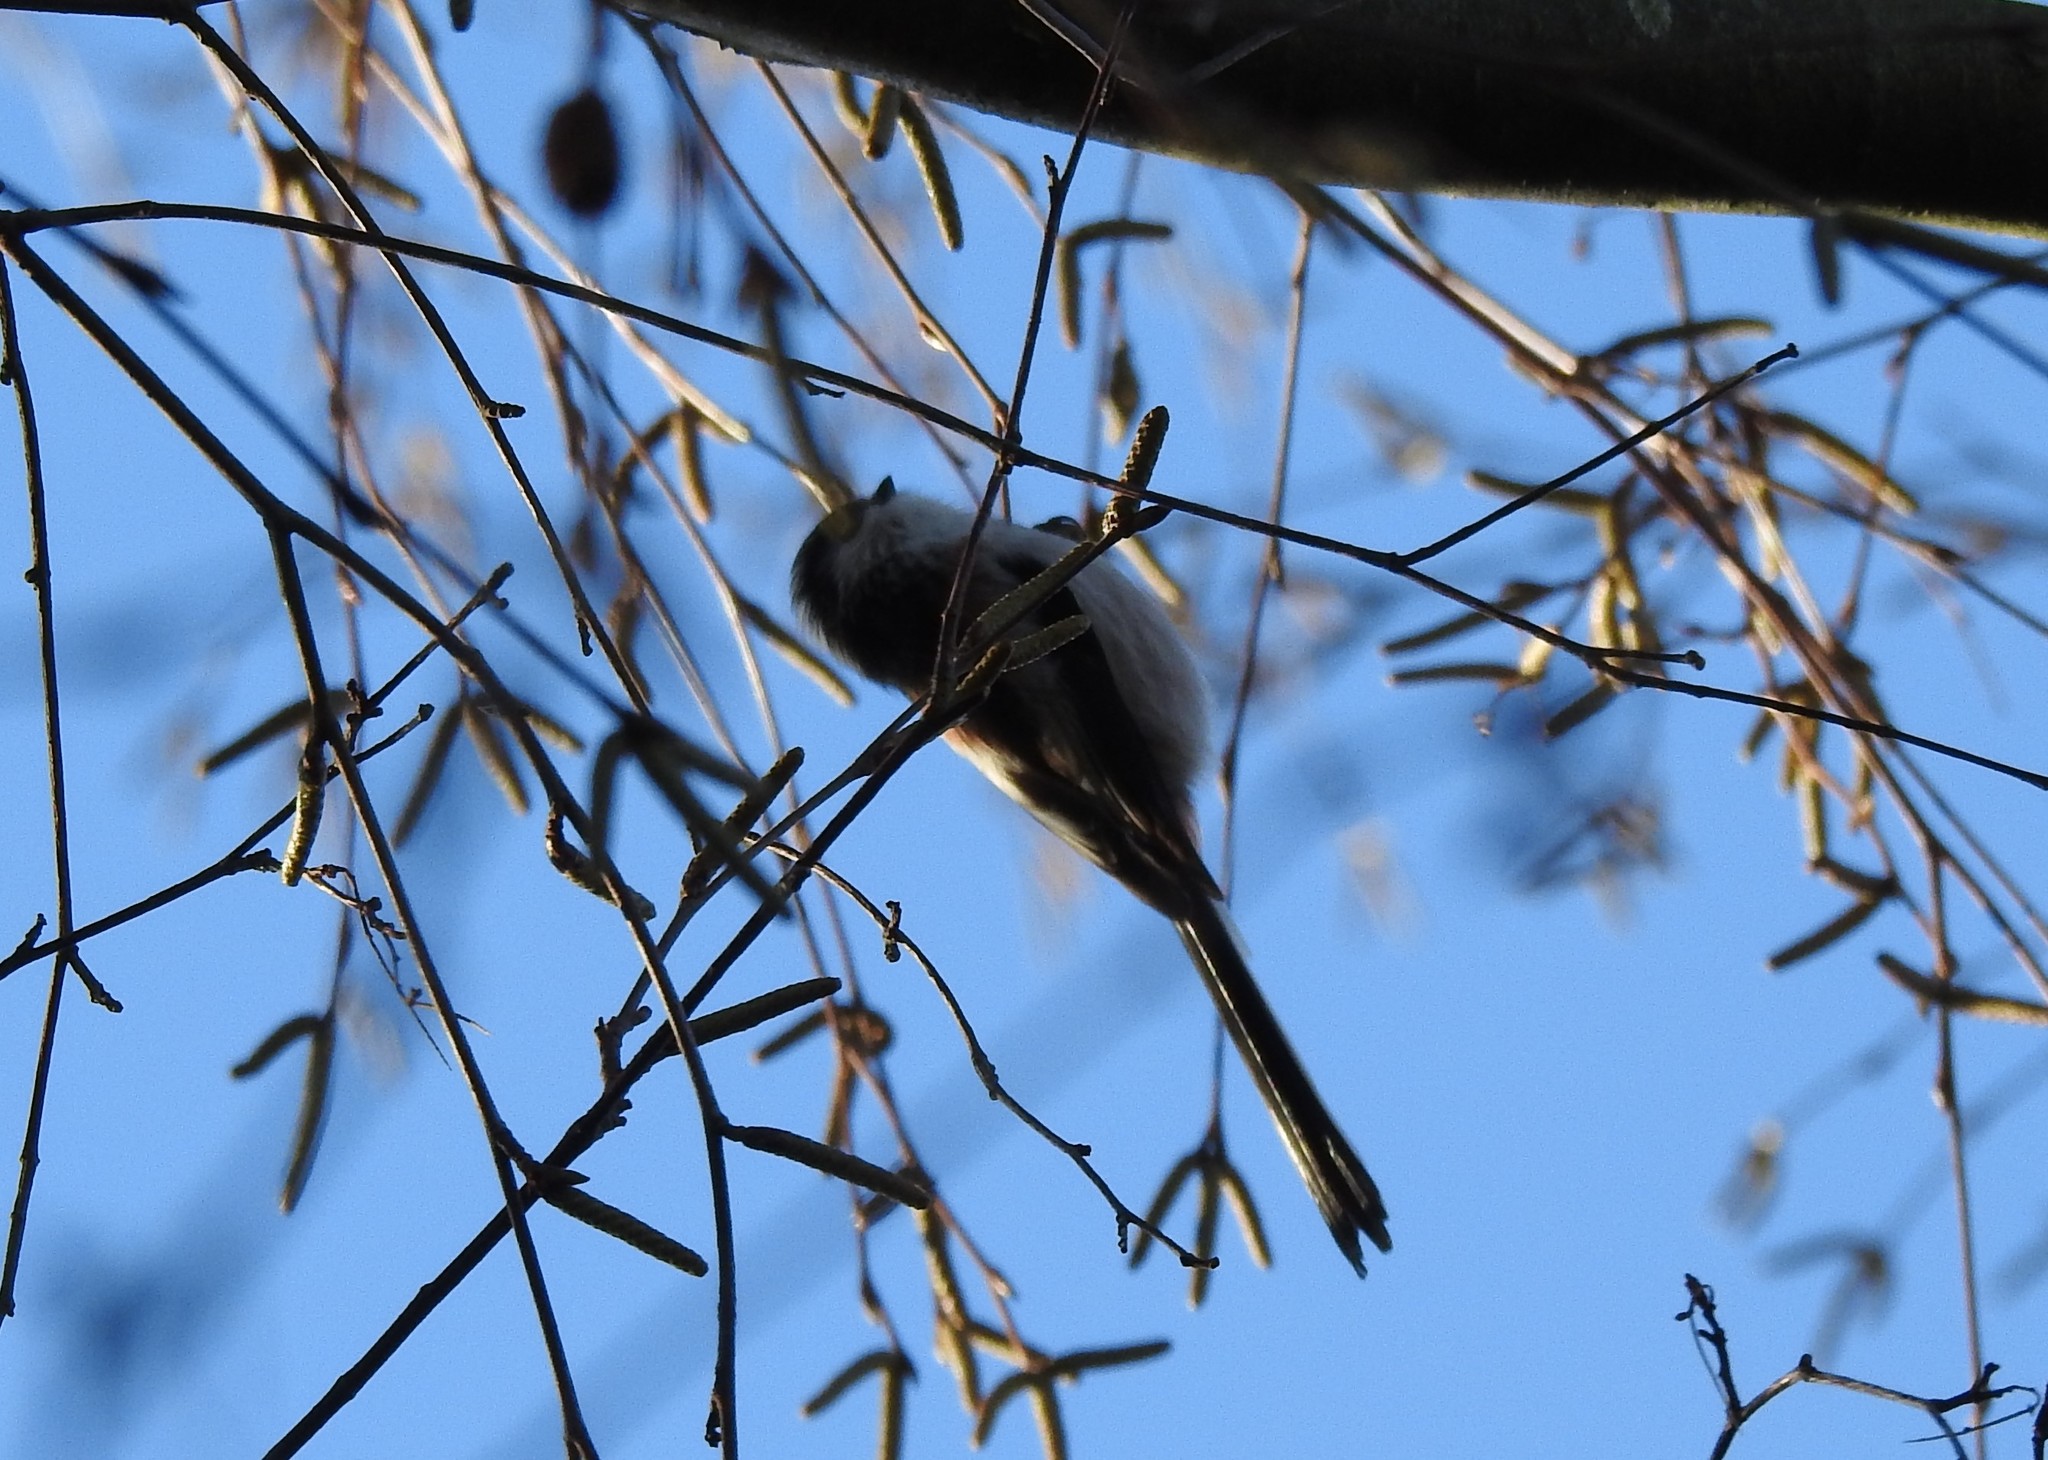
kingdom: Animalia
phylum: Chordata
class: Aves
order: Passeriformes
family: Aegithalidae
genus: Aegithalos
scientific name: Aegithalos caudatus
